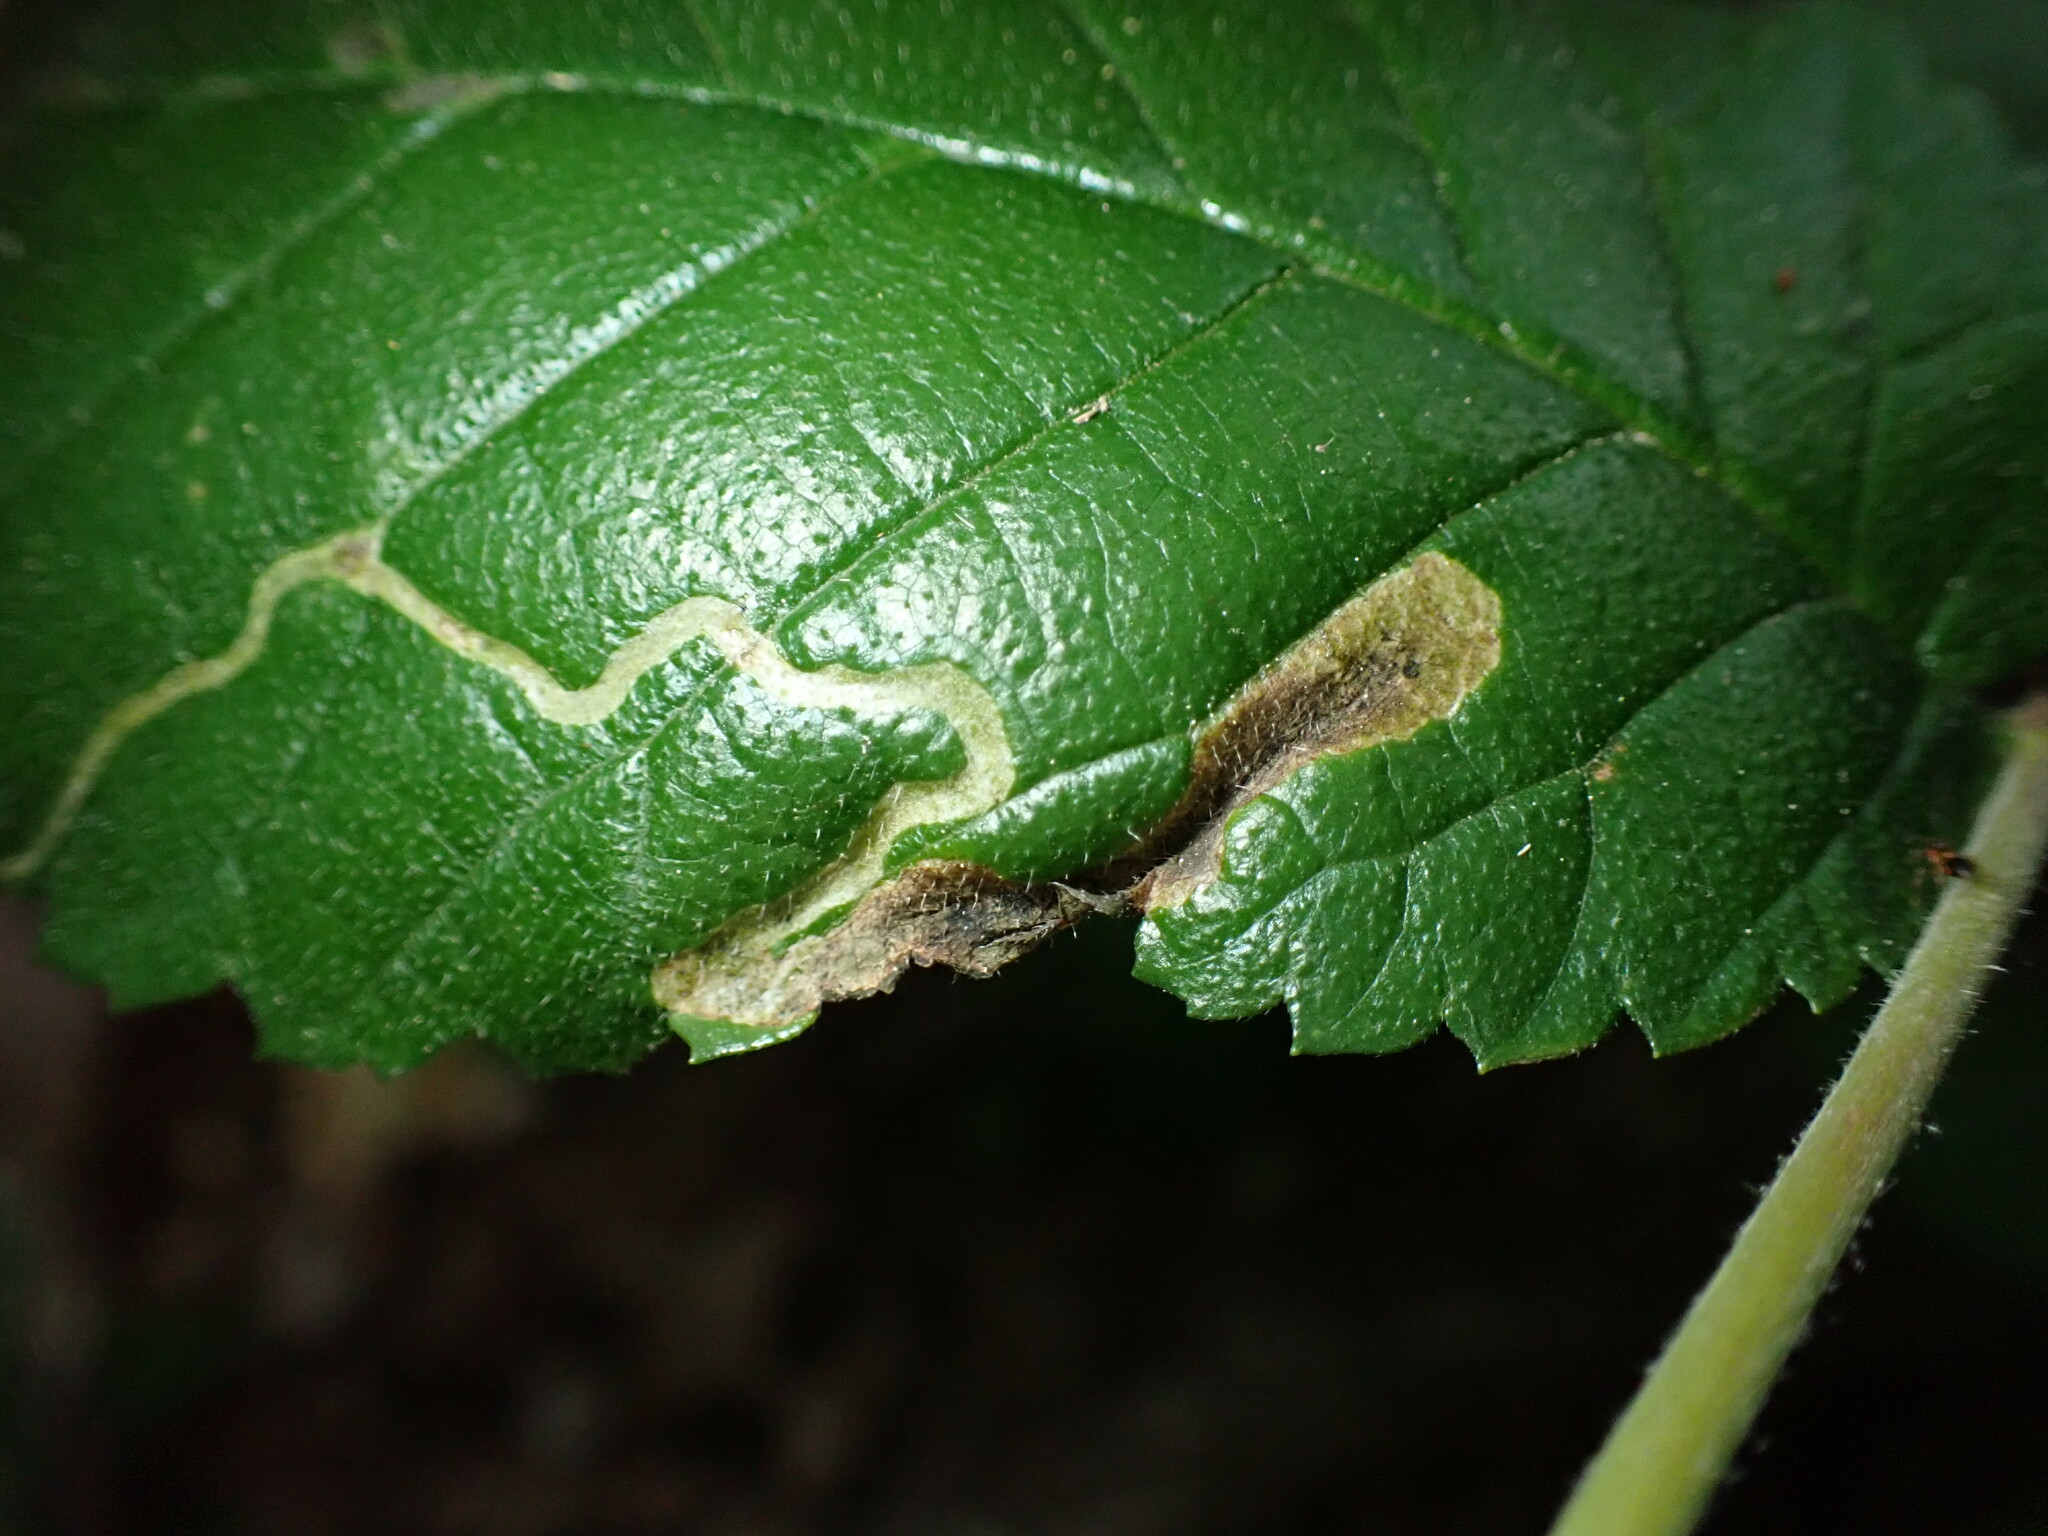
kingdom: Animalia
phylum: Arthropoda
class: Insecta
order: Diptera
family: Agromyzidae
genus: Agromyza
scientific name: Agromyza aristata
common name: Elm agromyzid leafminer
